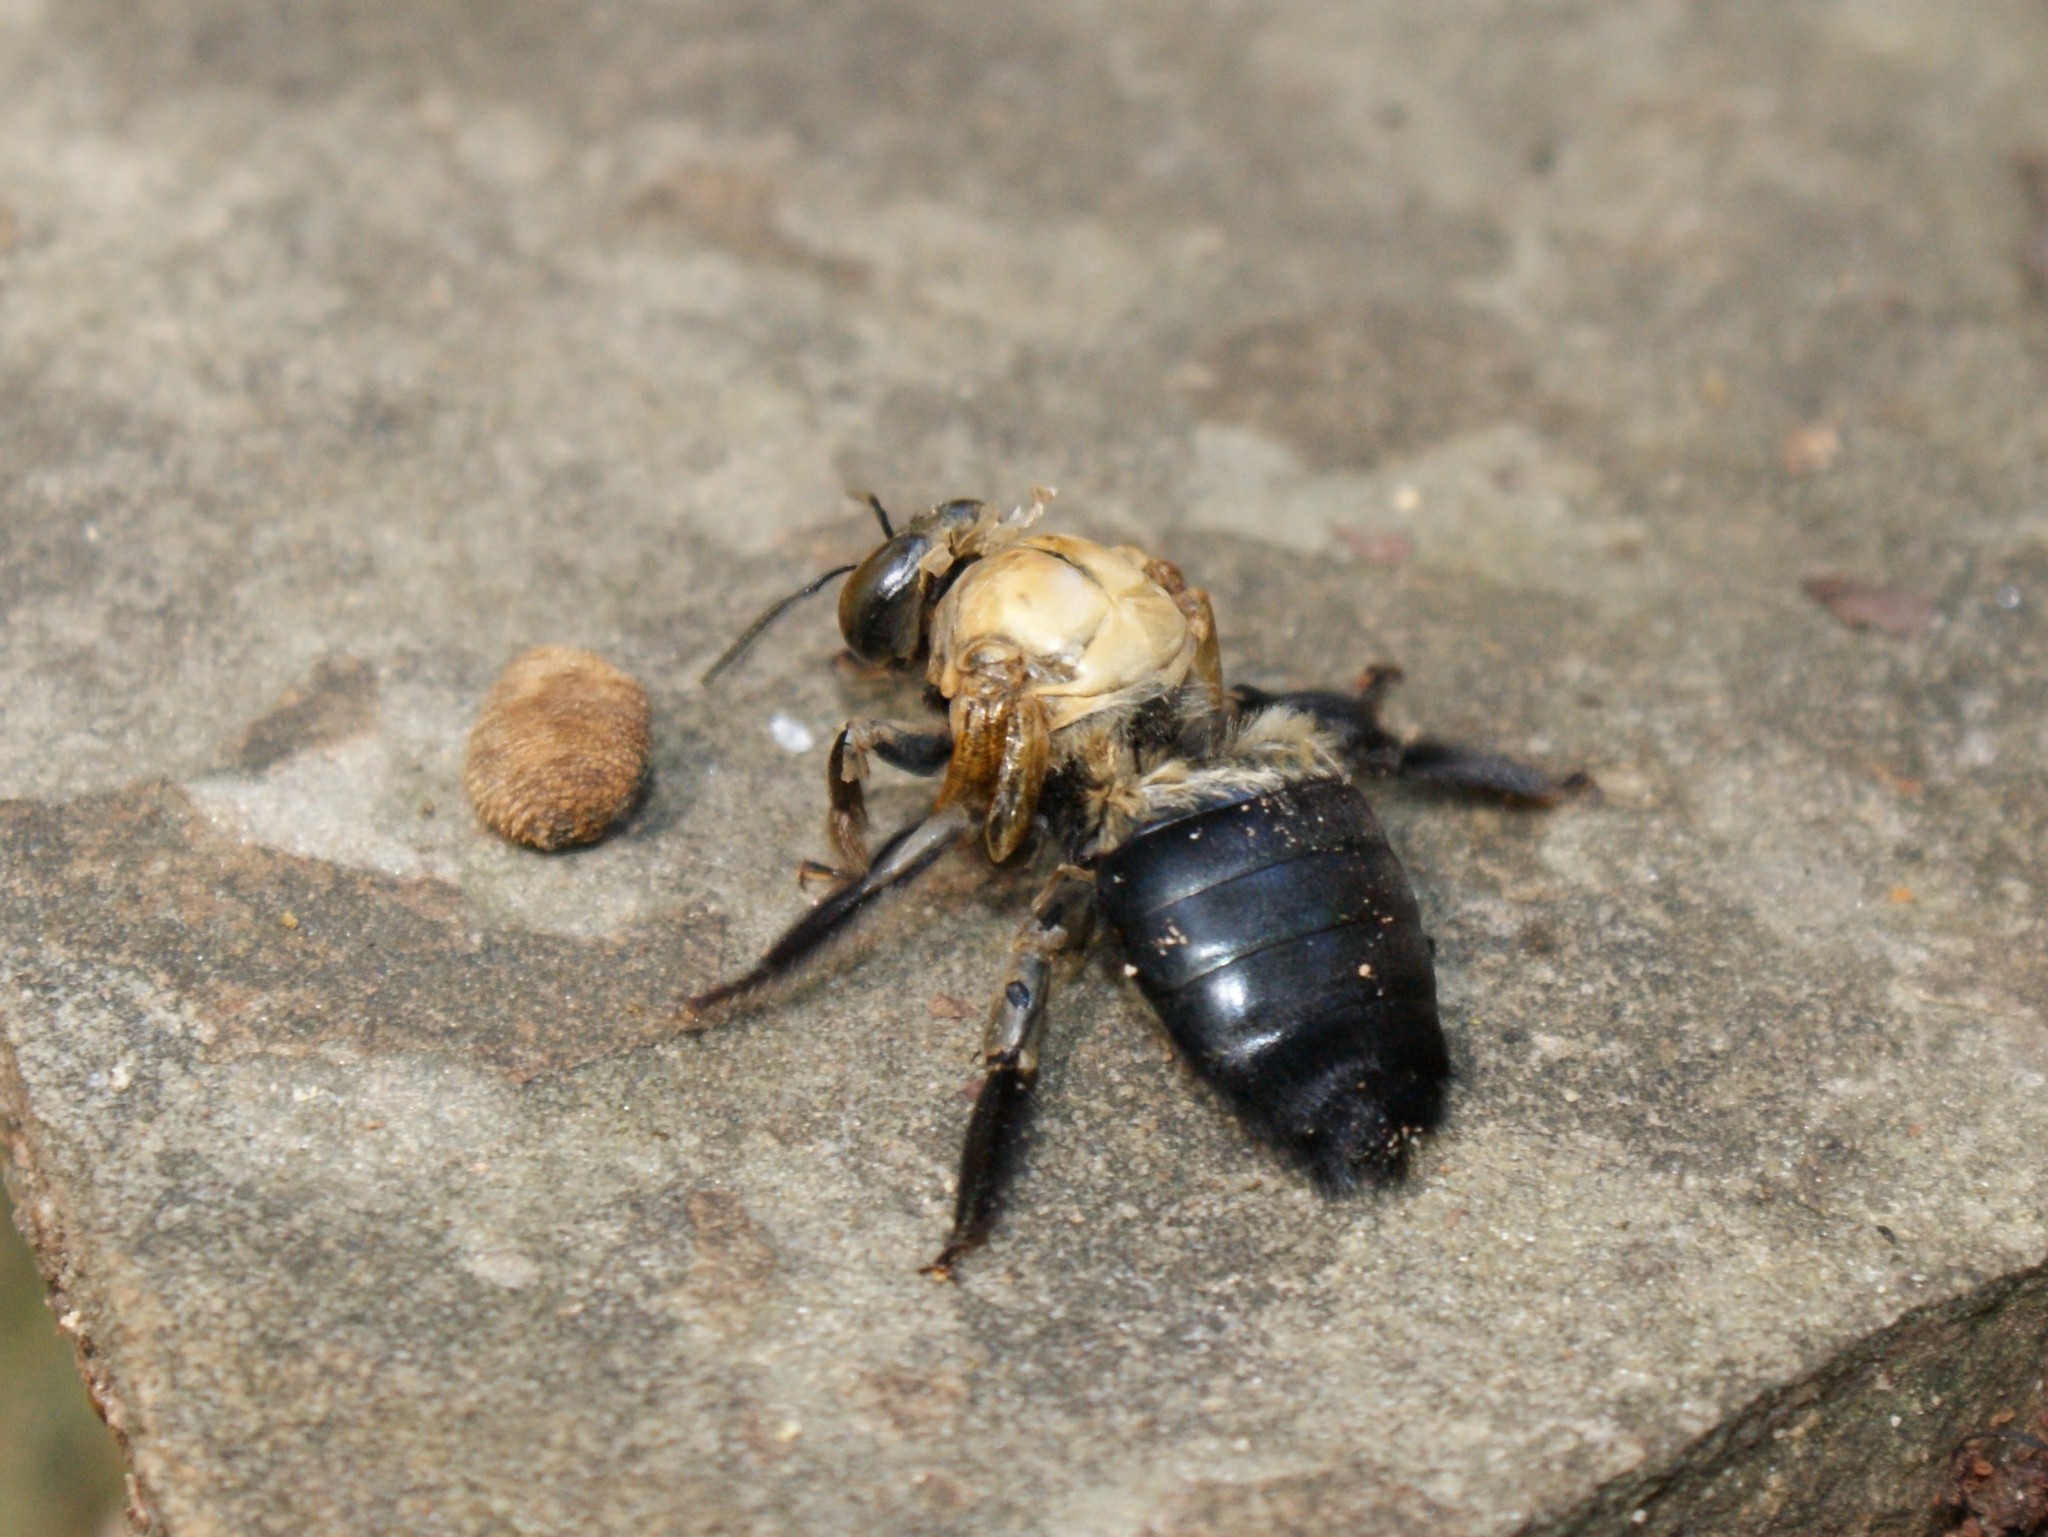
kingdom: Animalia
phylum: Arthropoda
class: Insecta
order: Hymenoptera
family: Apidae
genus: Xylocopa
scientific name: Xylocopa virginica
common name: Carpenter bee
